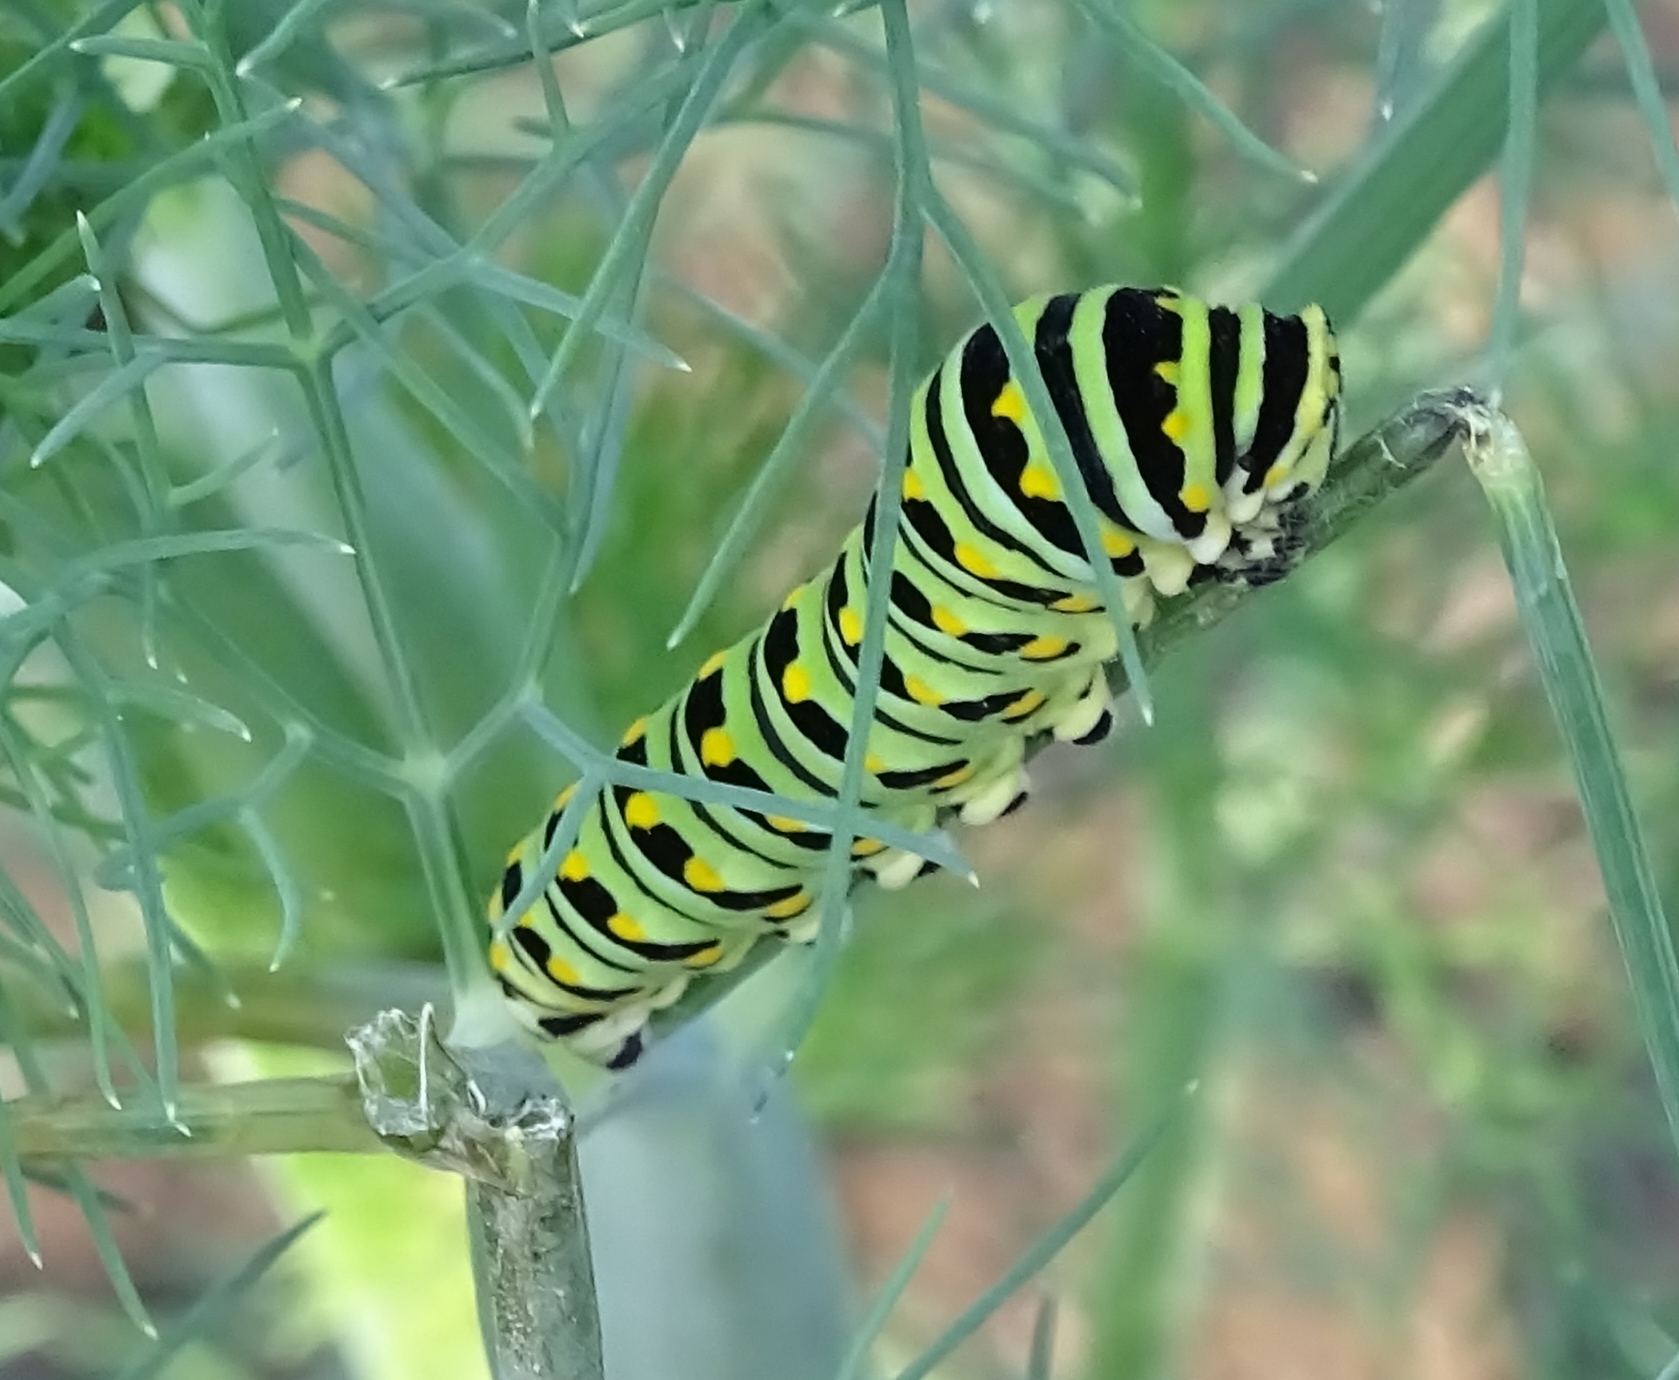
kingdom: Animalia
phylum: Arthropoda
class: Insecta
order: Lepidoptera
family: Papilionidae
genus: Papilio
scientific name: Papilio polyxenes
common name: Black swallowtail
